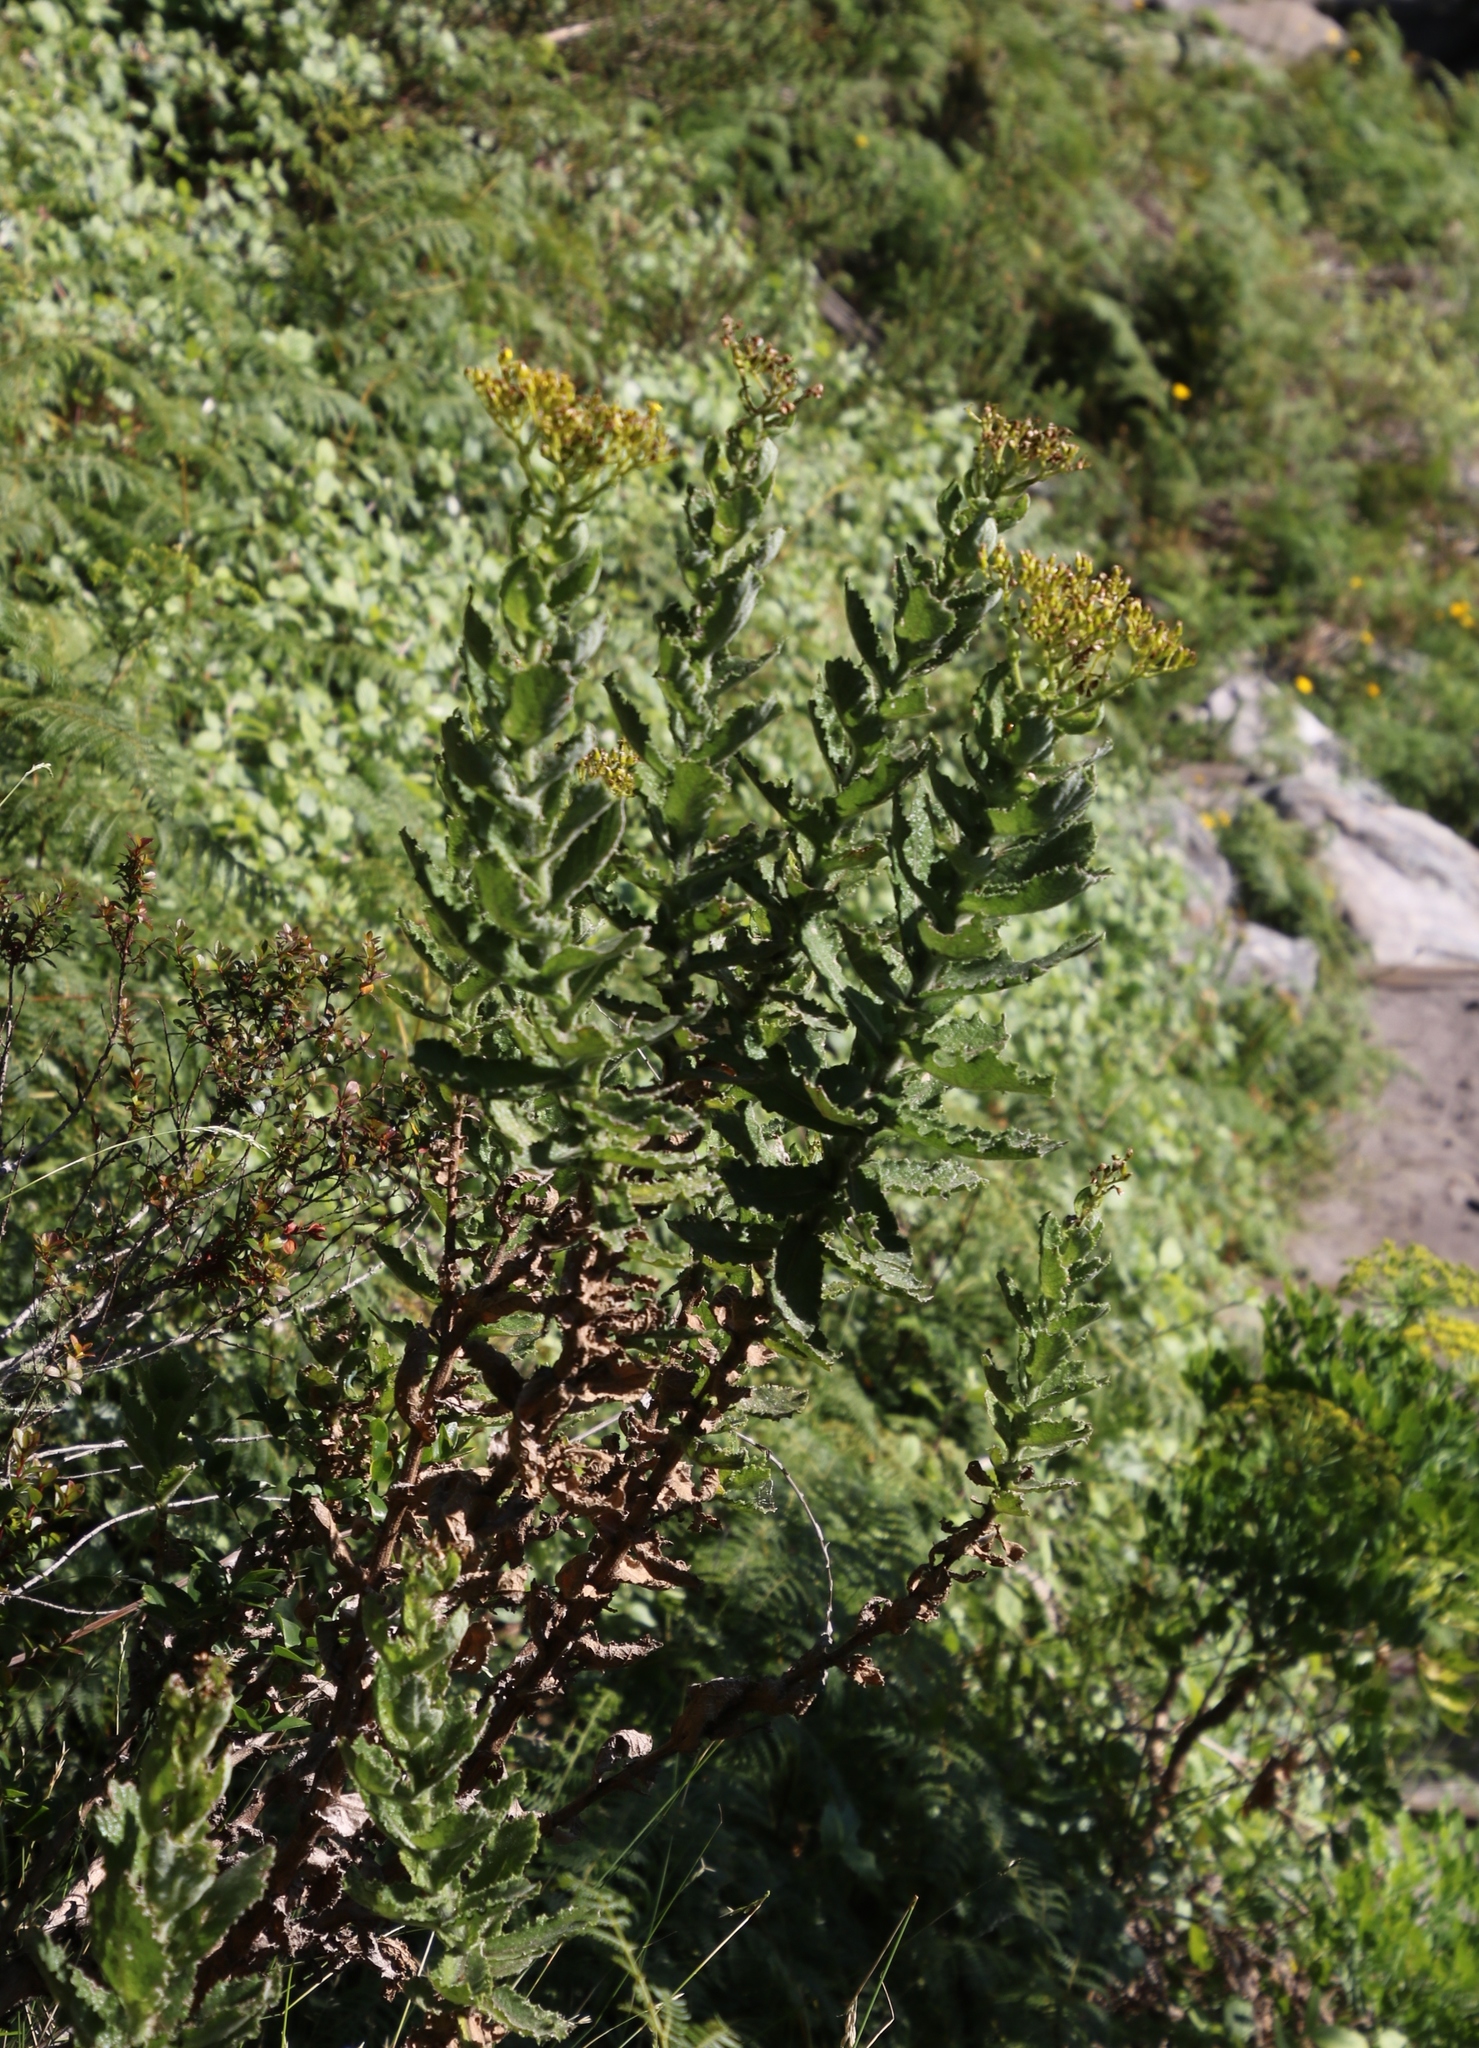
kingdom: Plantae
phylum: Tracheophyta
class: Magnoliopsida
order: Asterales
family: Asteraceae
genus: Senecio
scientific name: Senecio rigidus
